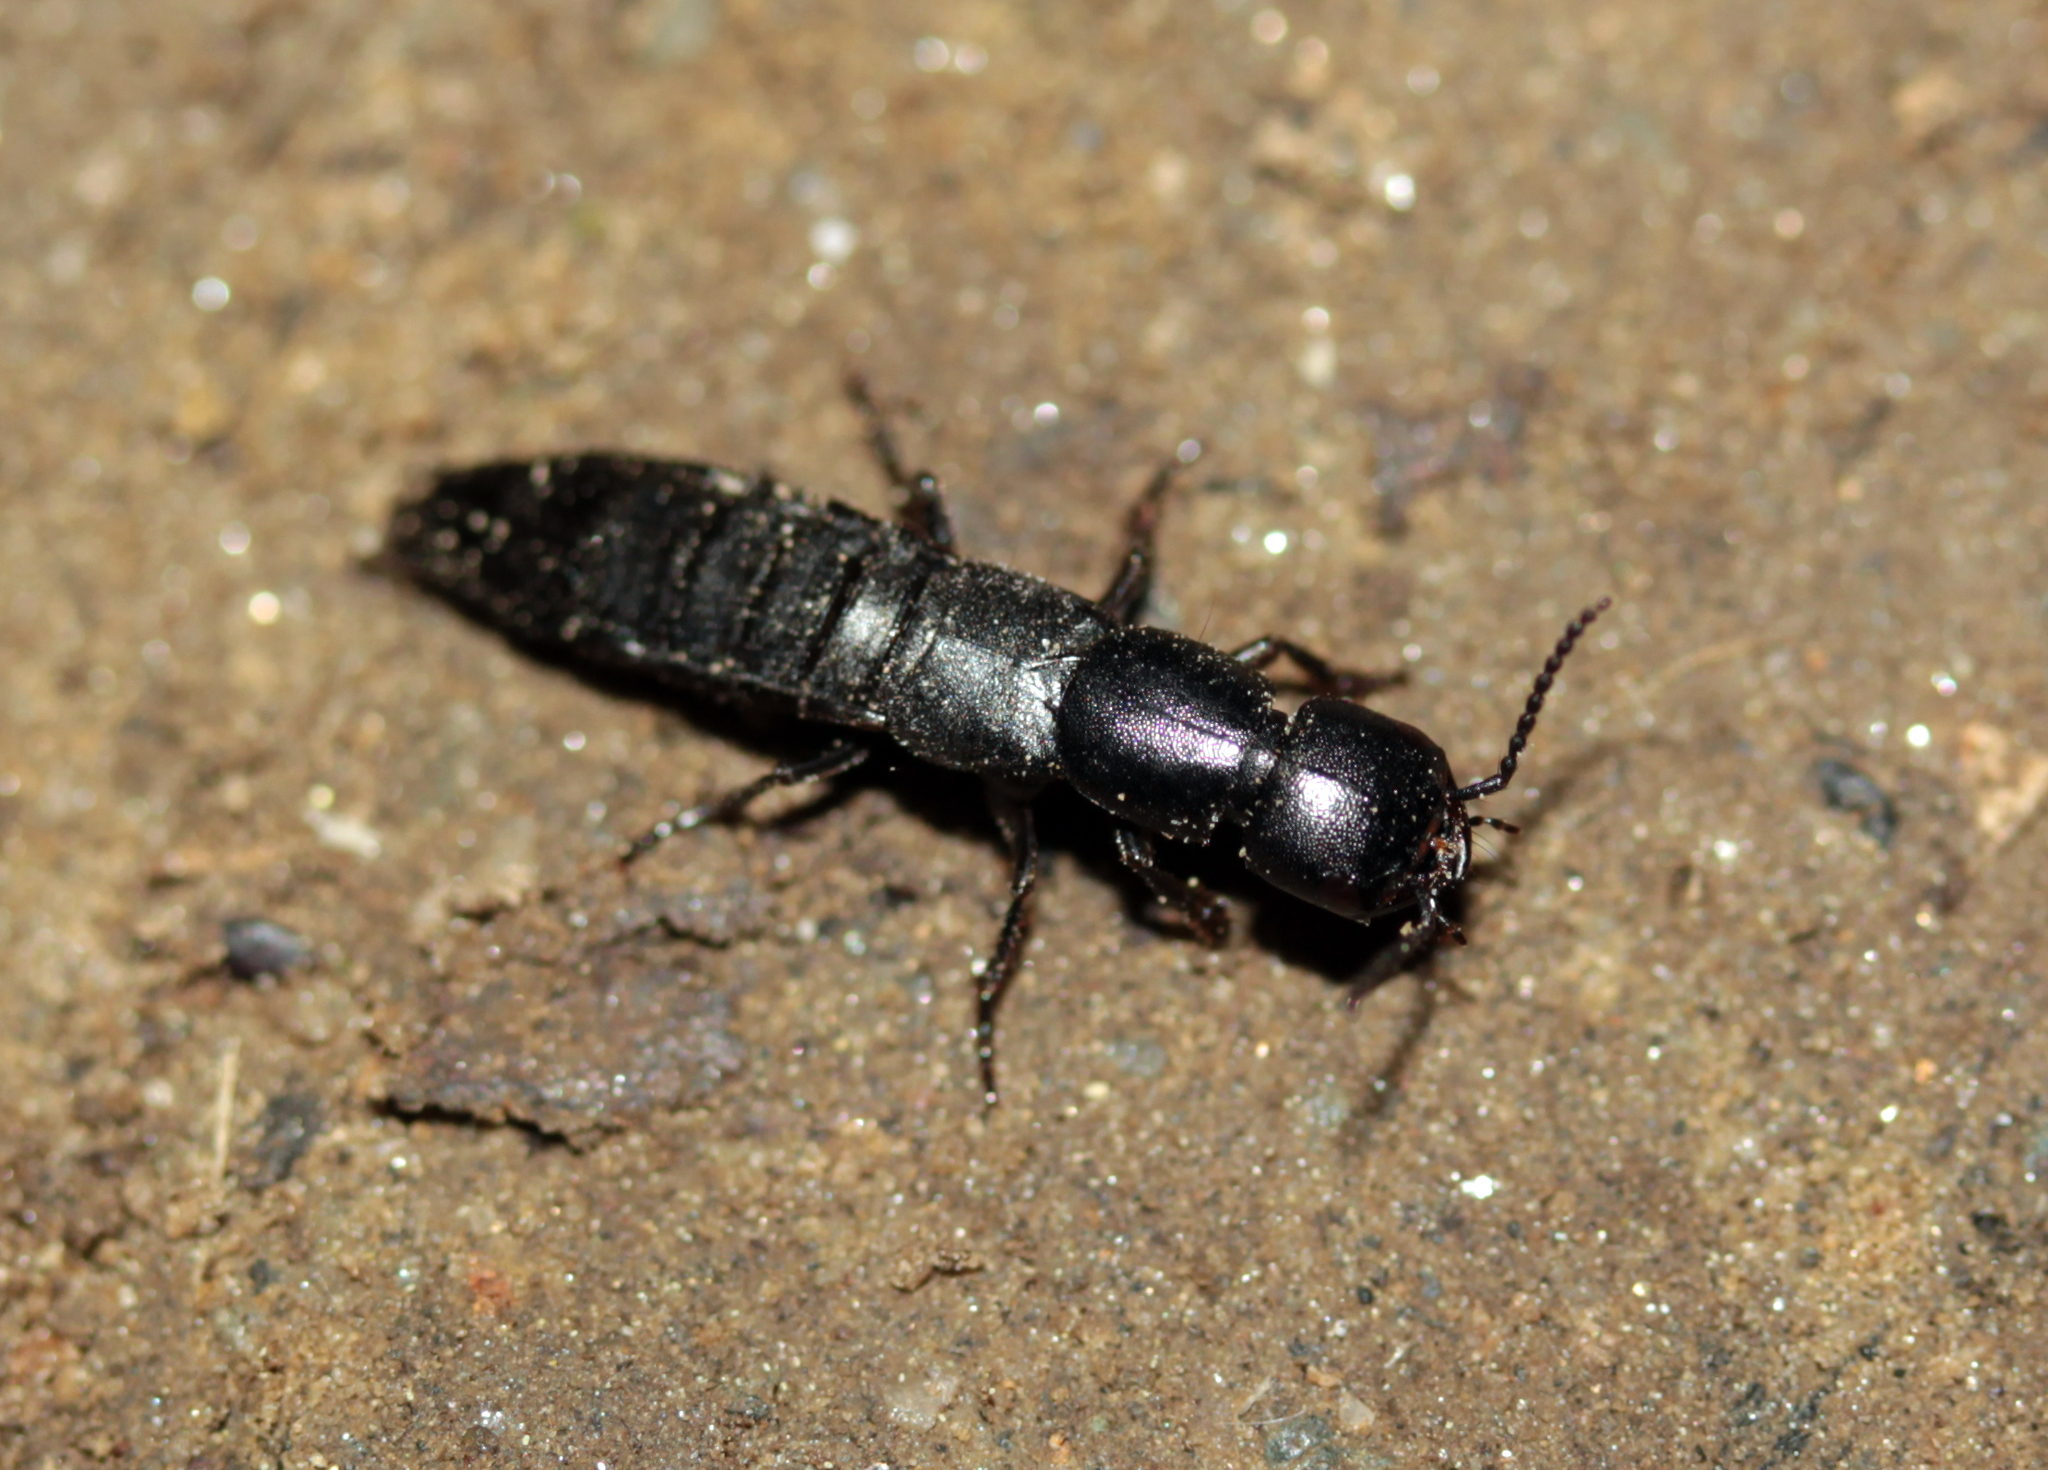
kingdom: Animalia
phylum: Arthropoda
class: Insecta
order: Coleoptera
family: Staphylinidae
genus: Ocypus
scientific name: Ocypus nitens
